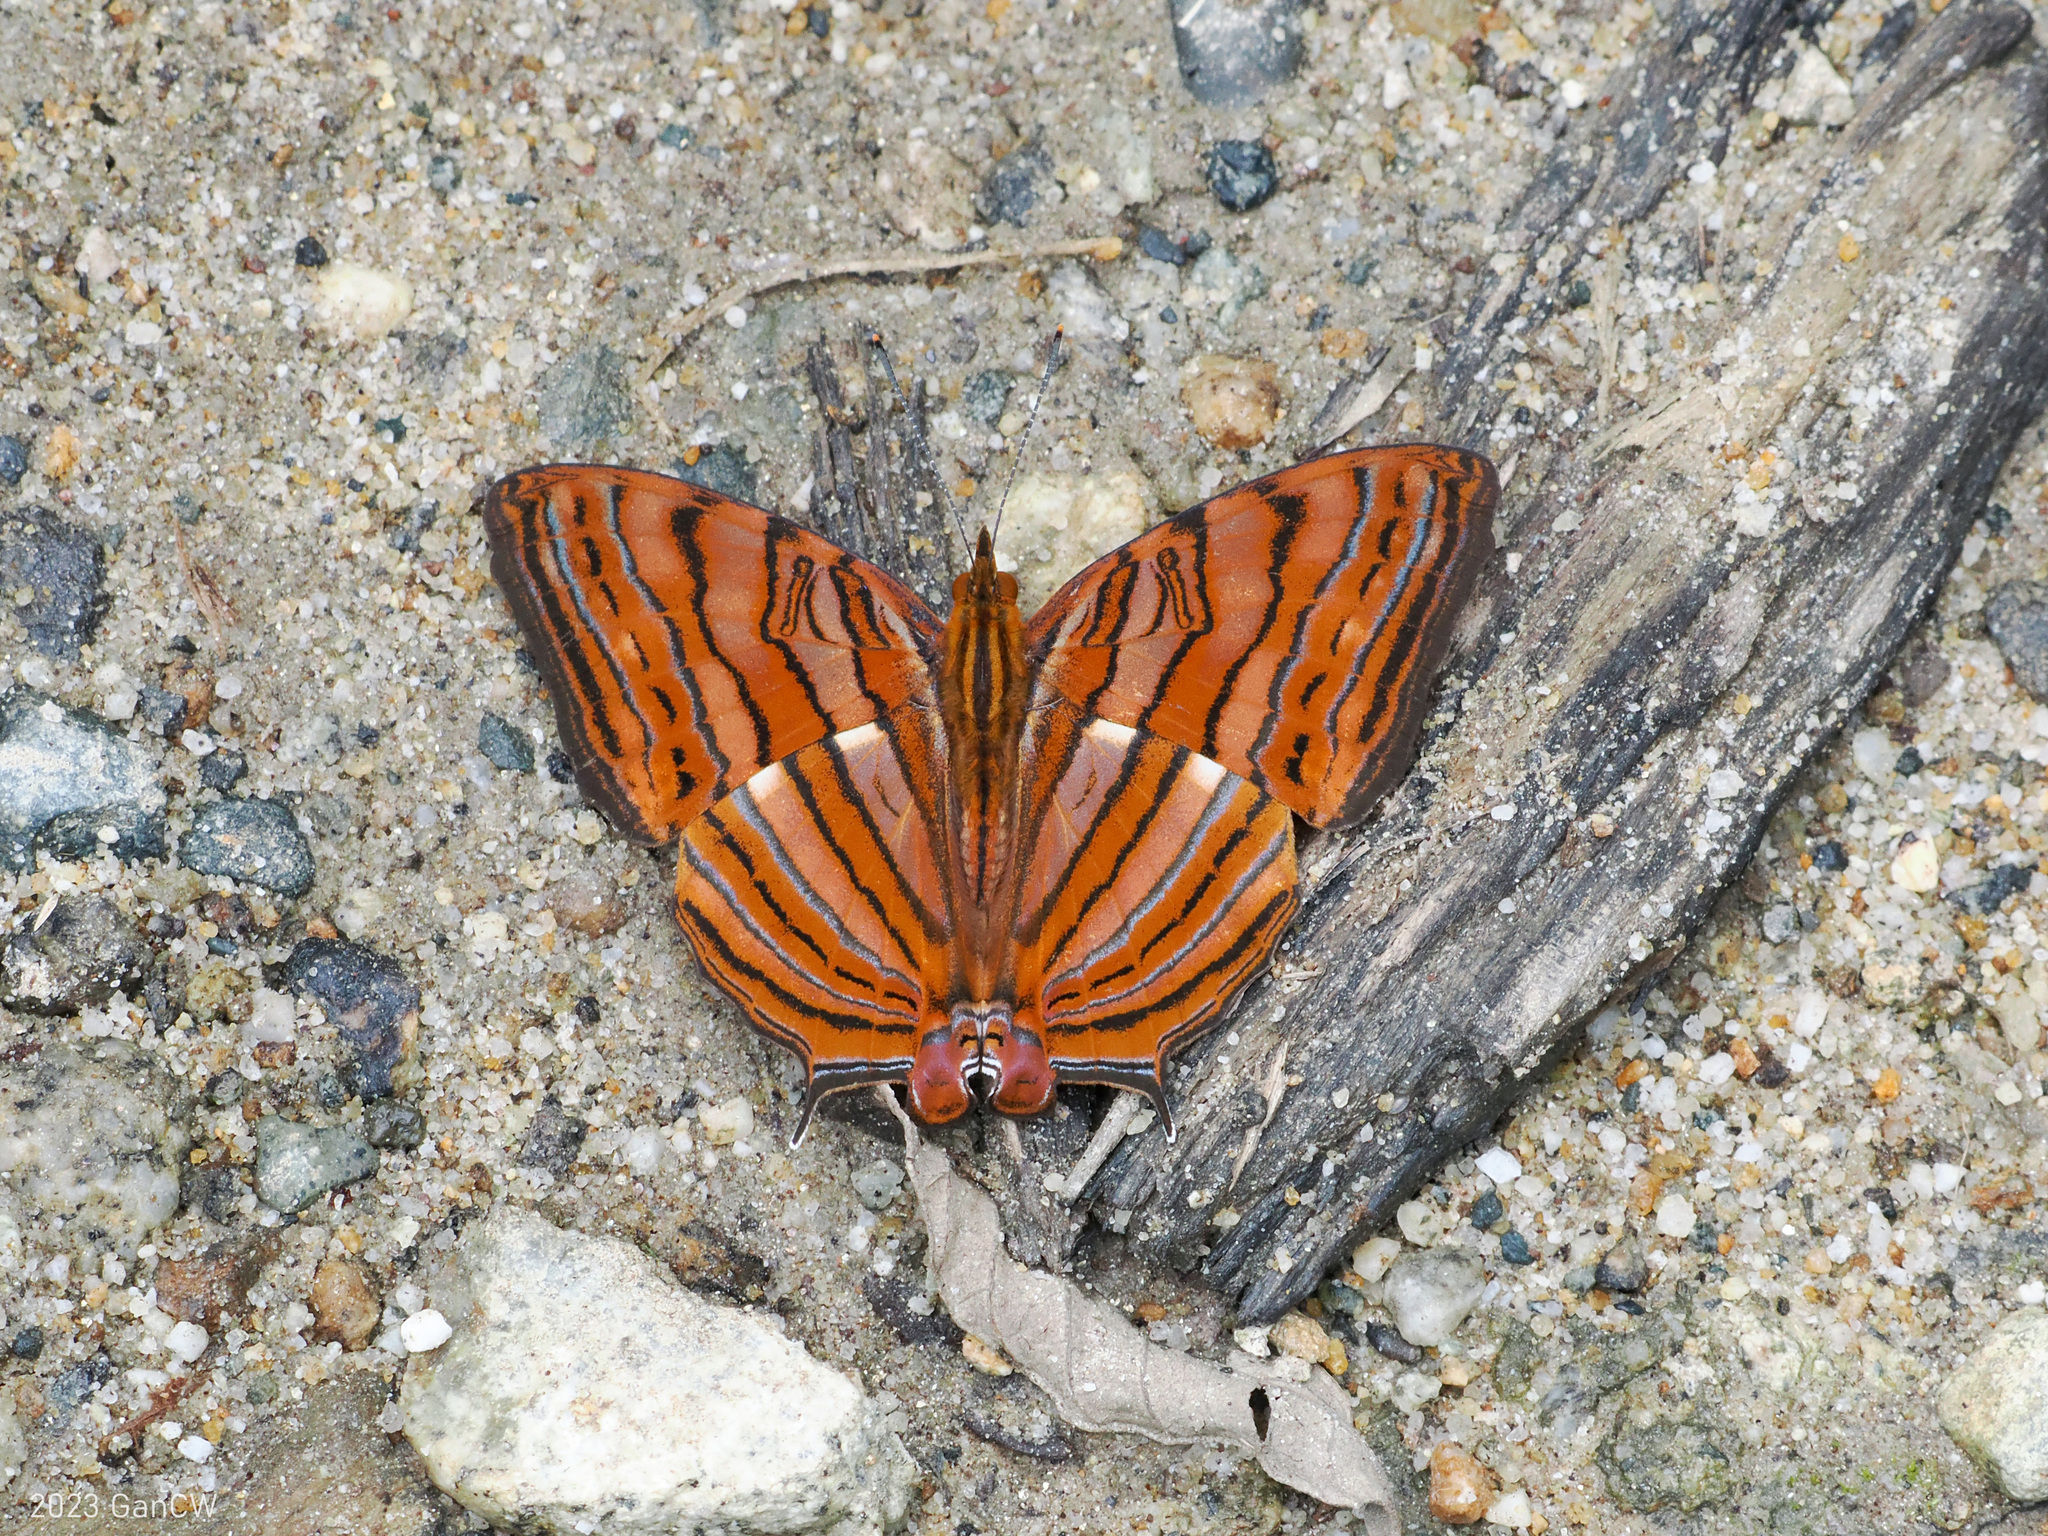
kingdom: Animalia
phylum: Arthropoda
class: Insecta
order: Lepidoptera
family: Nymphalidae
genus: Cyrestis
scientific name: Cyrestis thyonneus
